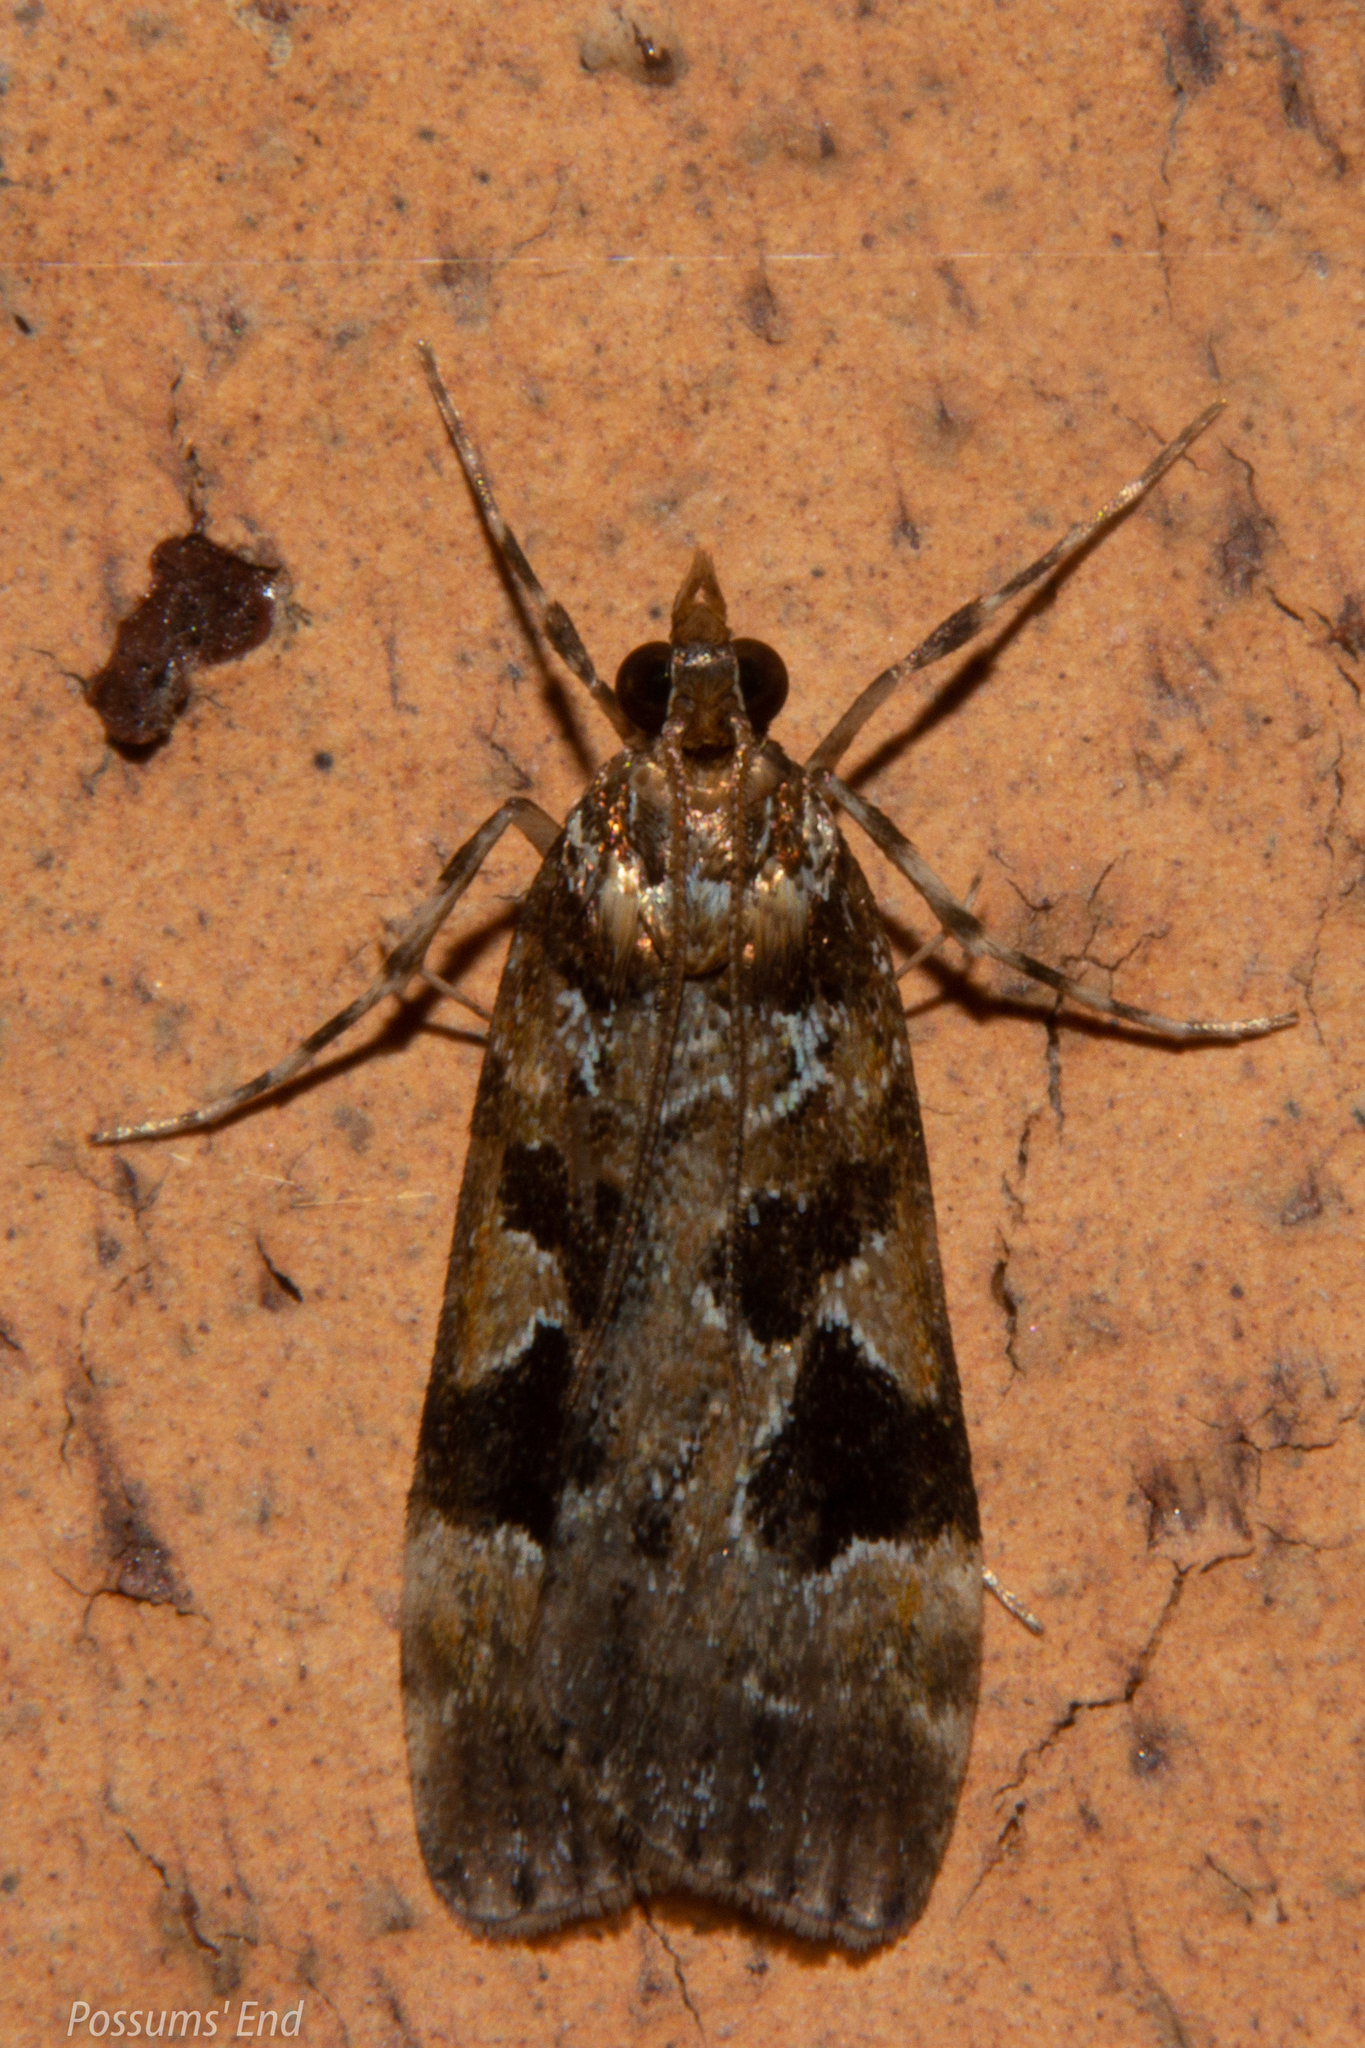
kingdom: Animalia
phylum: Arthropoda
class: Insecta
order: Lepidoptera
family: Crambidae
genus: Scoparia
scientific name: Scoparia ustimacula
